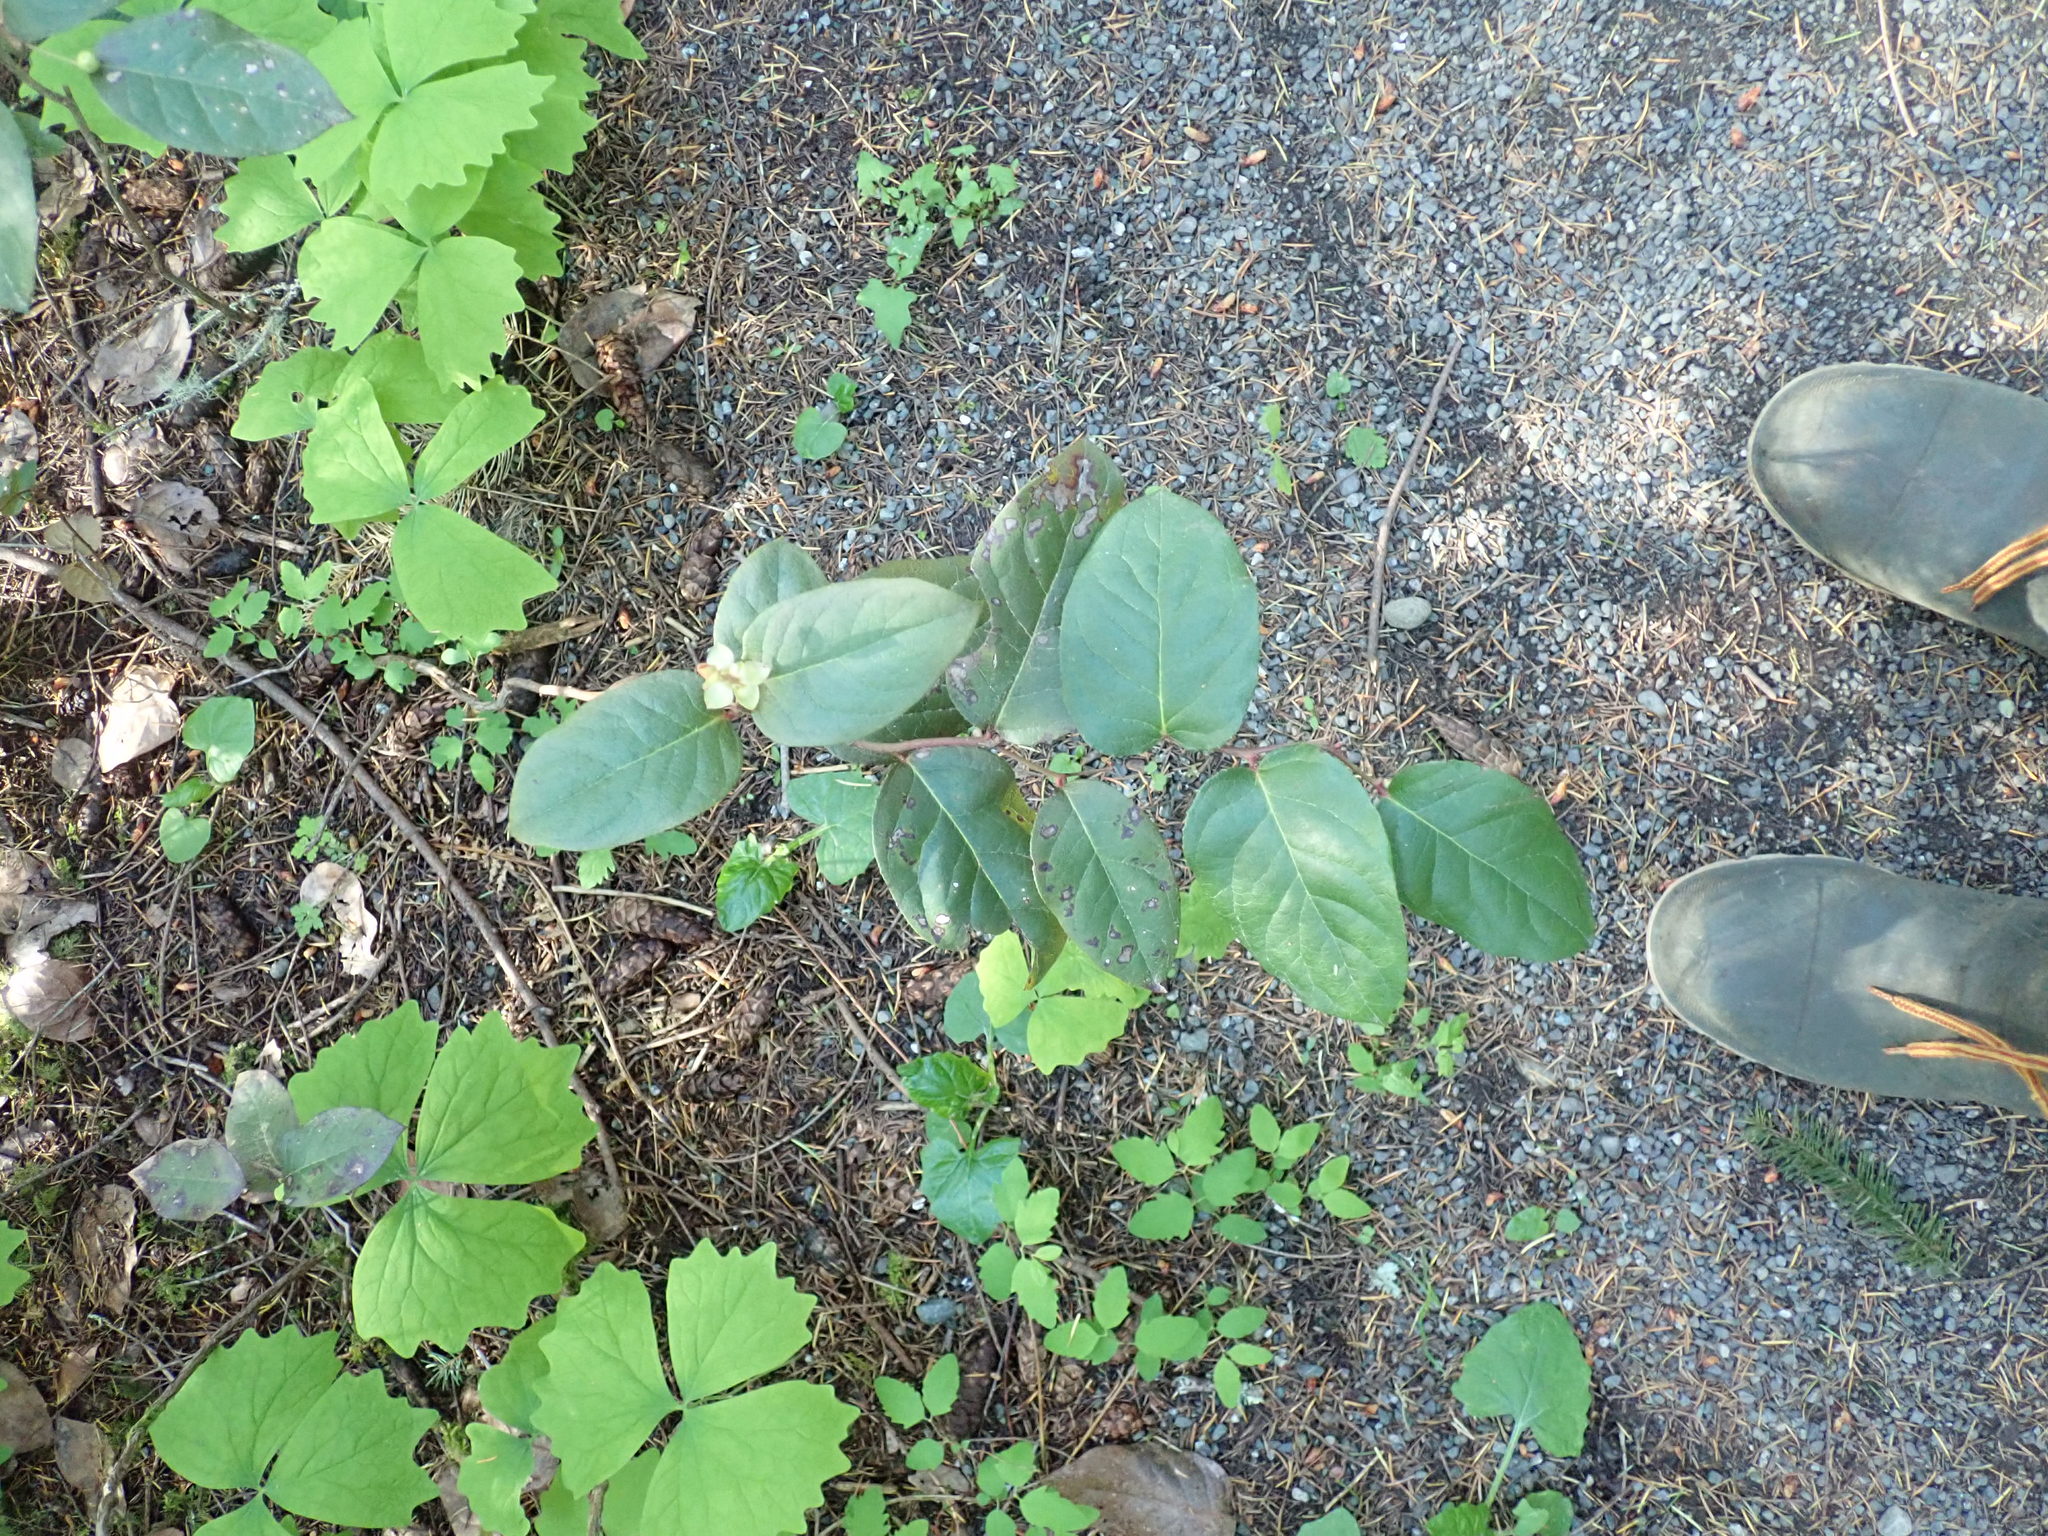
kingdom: Plantae
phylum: Tracheophyta
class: Magnoliopsida
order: Ericales
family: Ericaceae
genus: Gaultheria
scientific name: Gaultheria shallon
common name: Shallon
